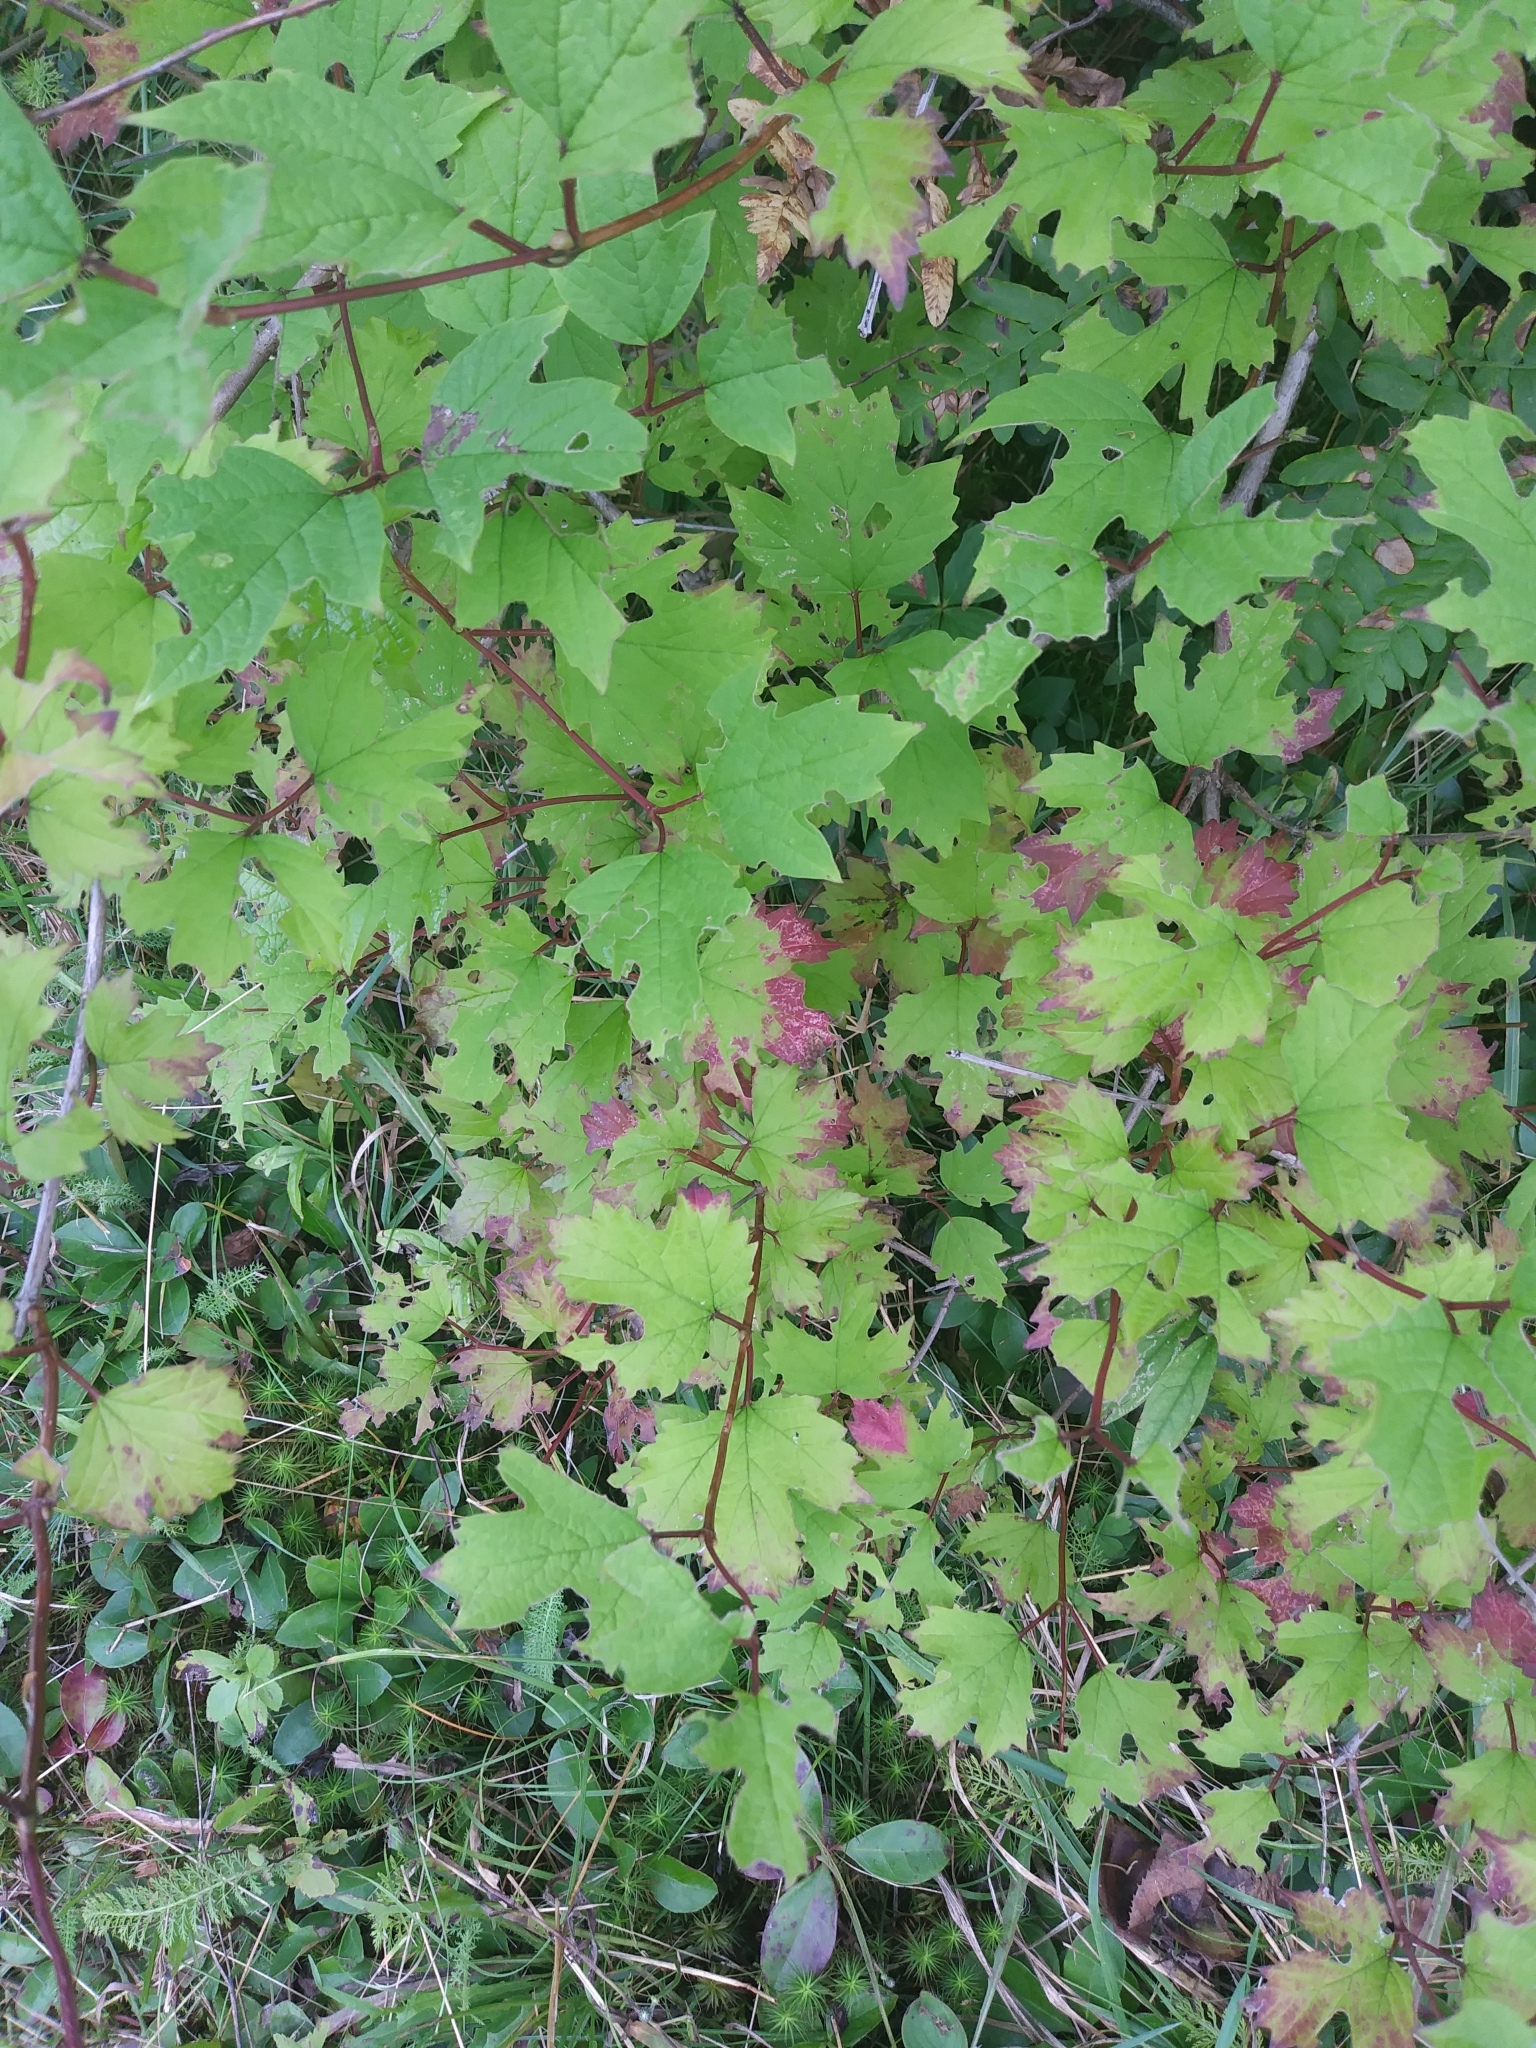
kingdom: Plantae
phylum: Tracheophyta
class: Magnoliopsida
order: Dipsacales
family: Viburnaceae
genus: Viburnum
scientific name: Viburnum opulus
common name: Guelder-rose
